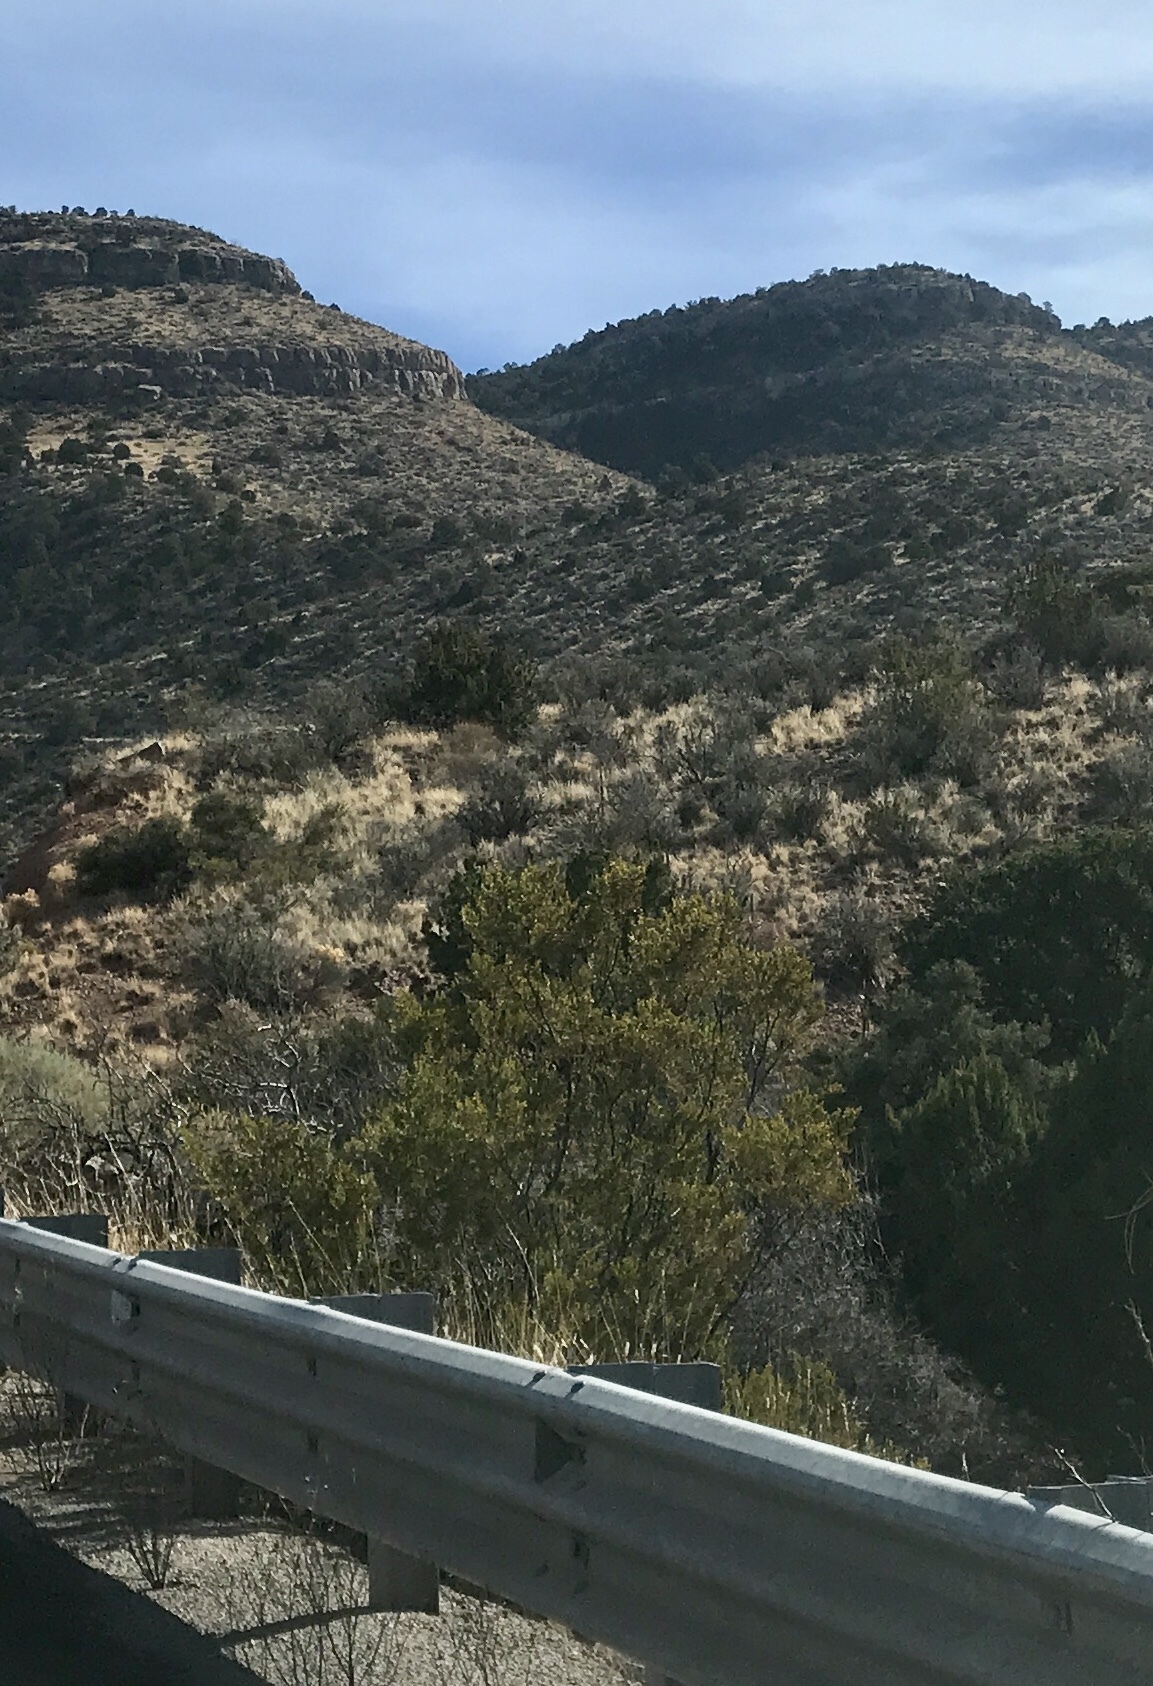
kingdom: Plantae
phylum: Tracheophyta
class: Magnoliopsida
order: Zygophyllales
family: Zygophyllaceae
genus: Larrea
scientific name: Larrea tridentata
